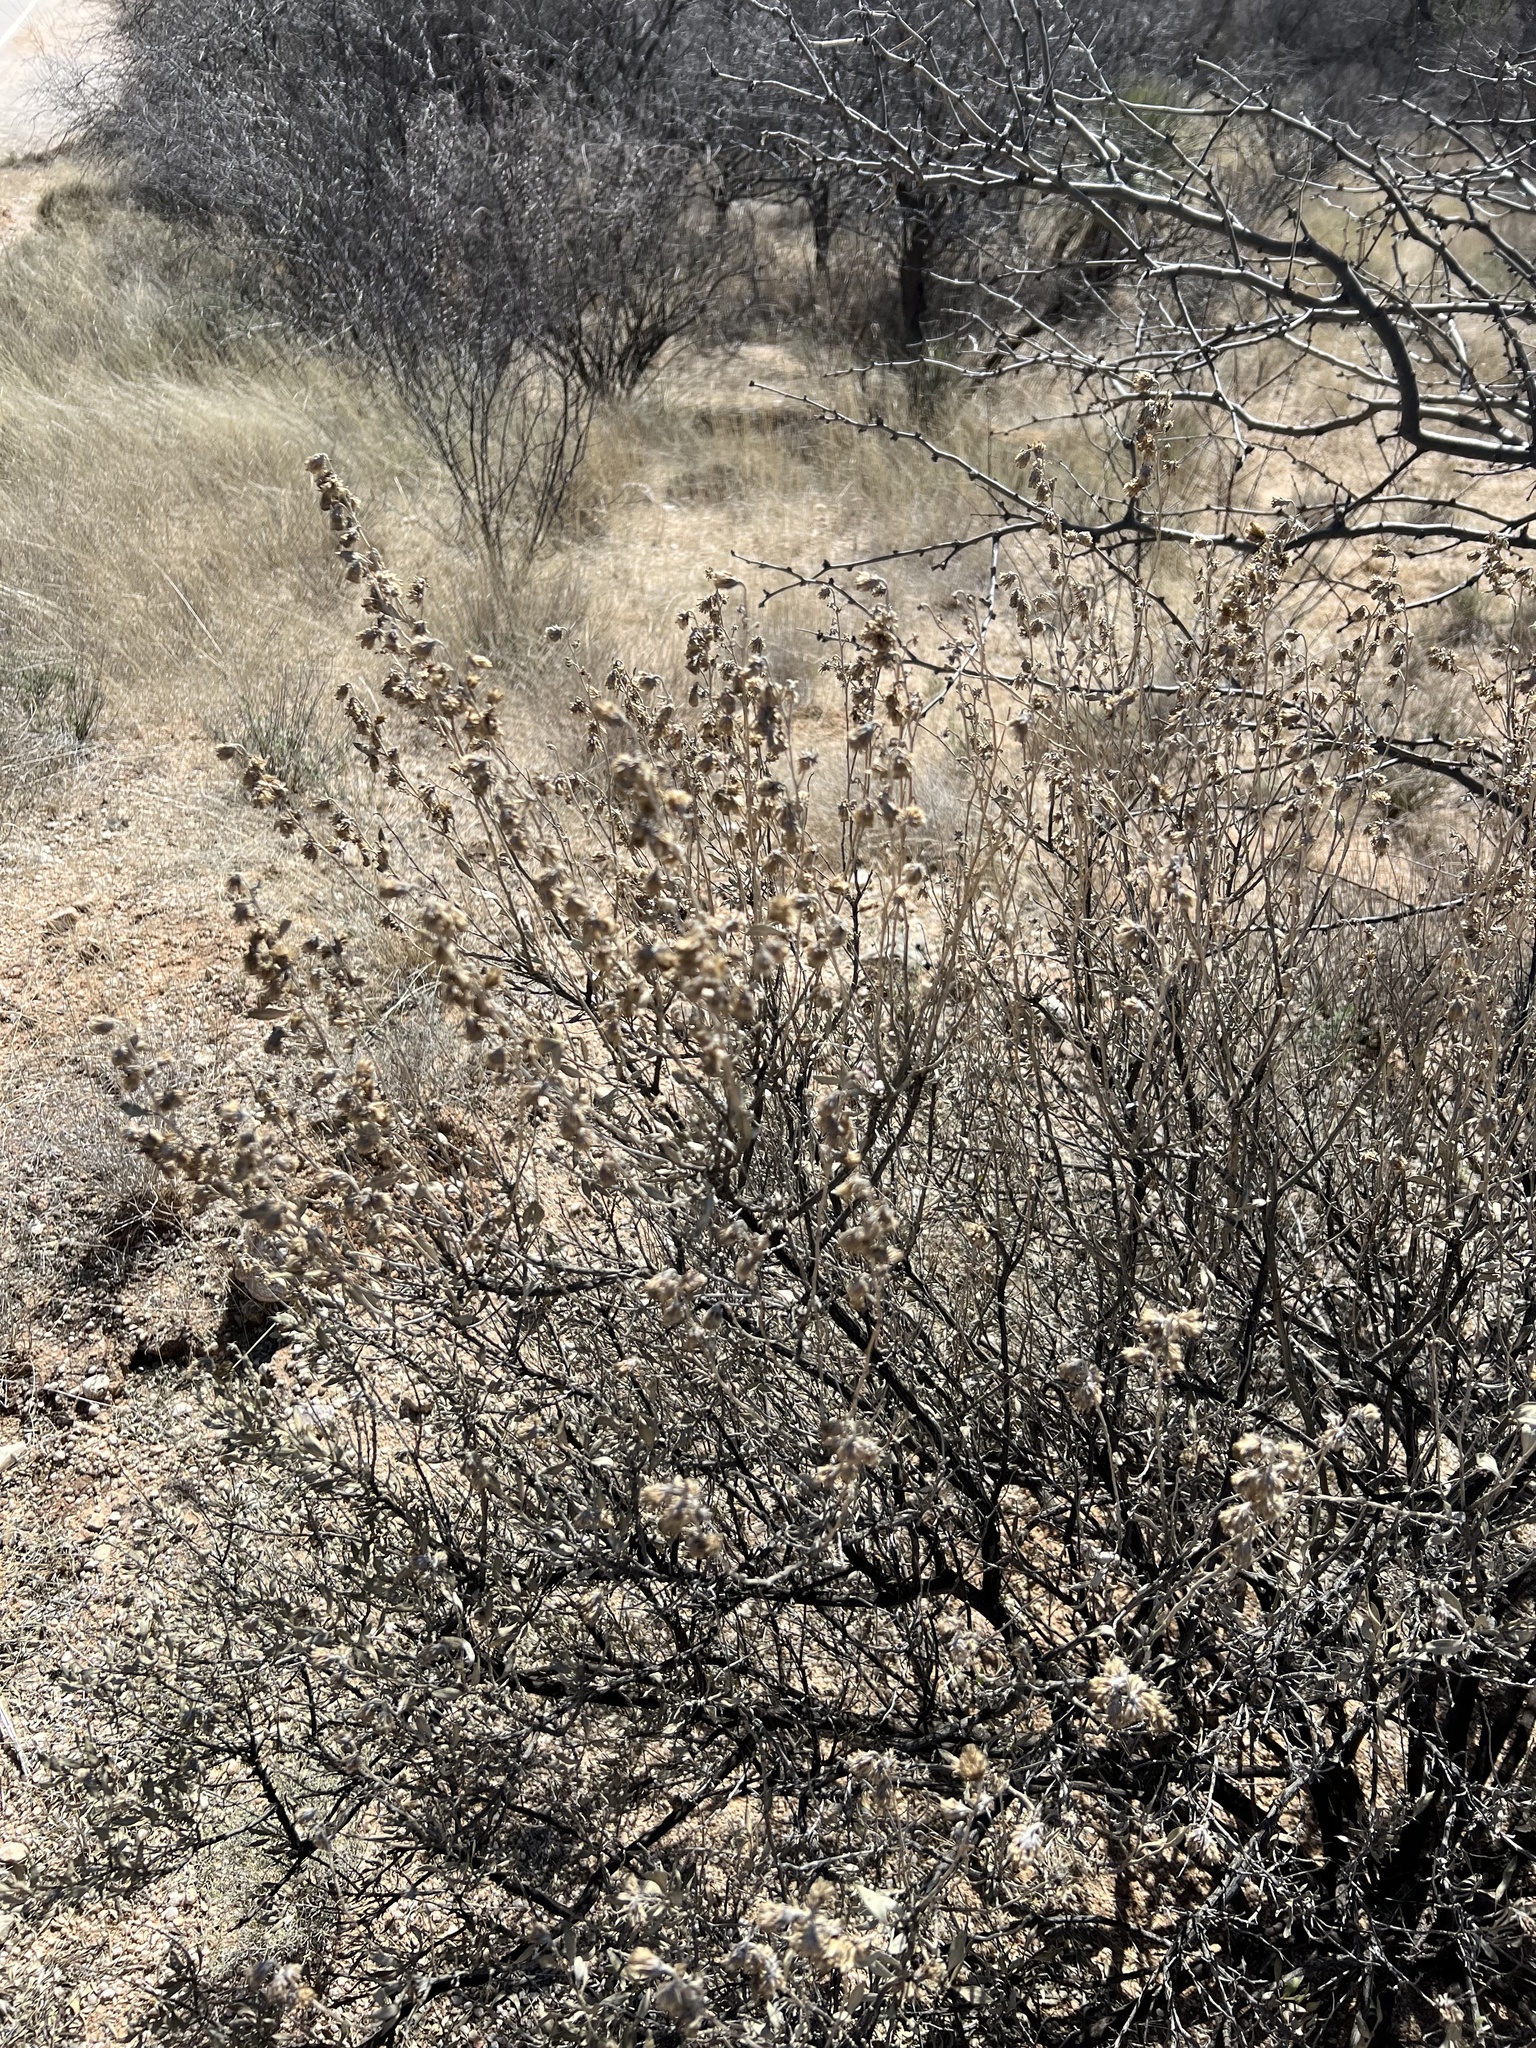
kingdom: Plantae
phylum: Tracheophyta
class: Magnoliopsida
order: Asterales
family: Asteraceae
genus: Flourensia
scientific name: Flourensia cernua
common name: Varnishbush
